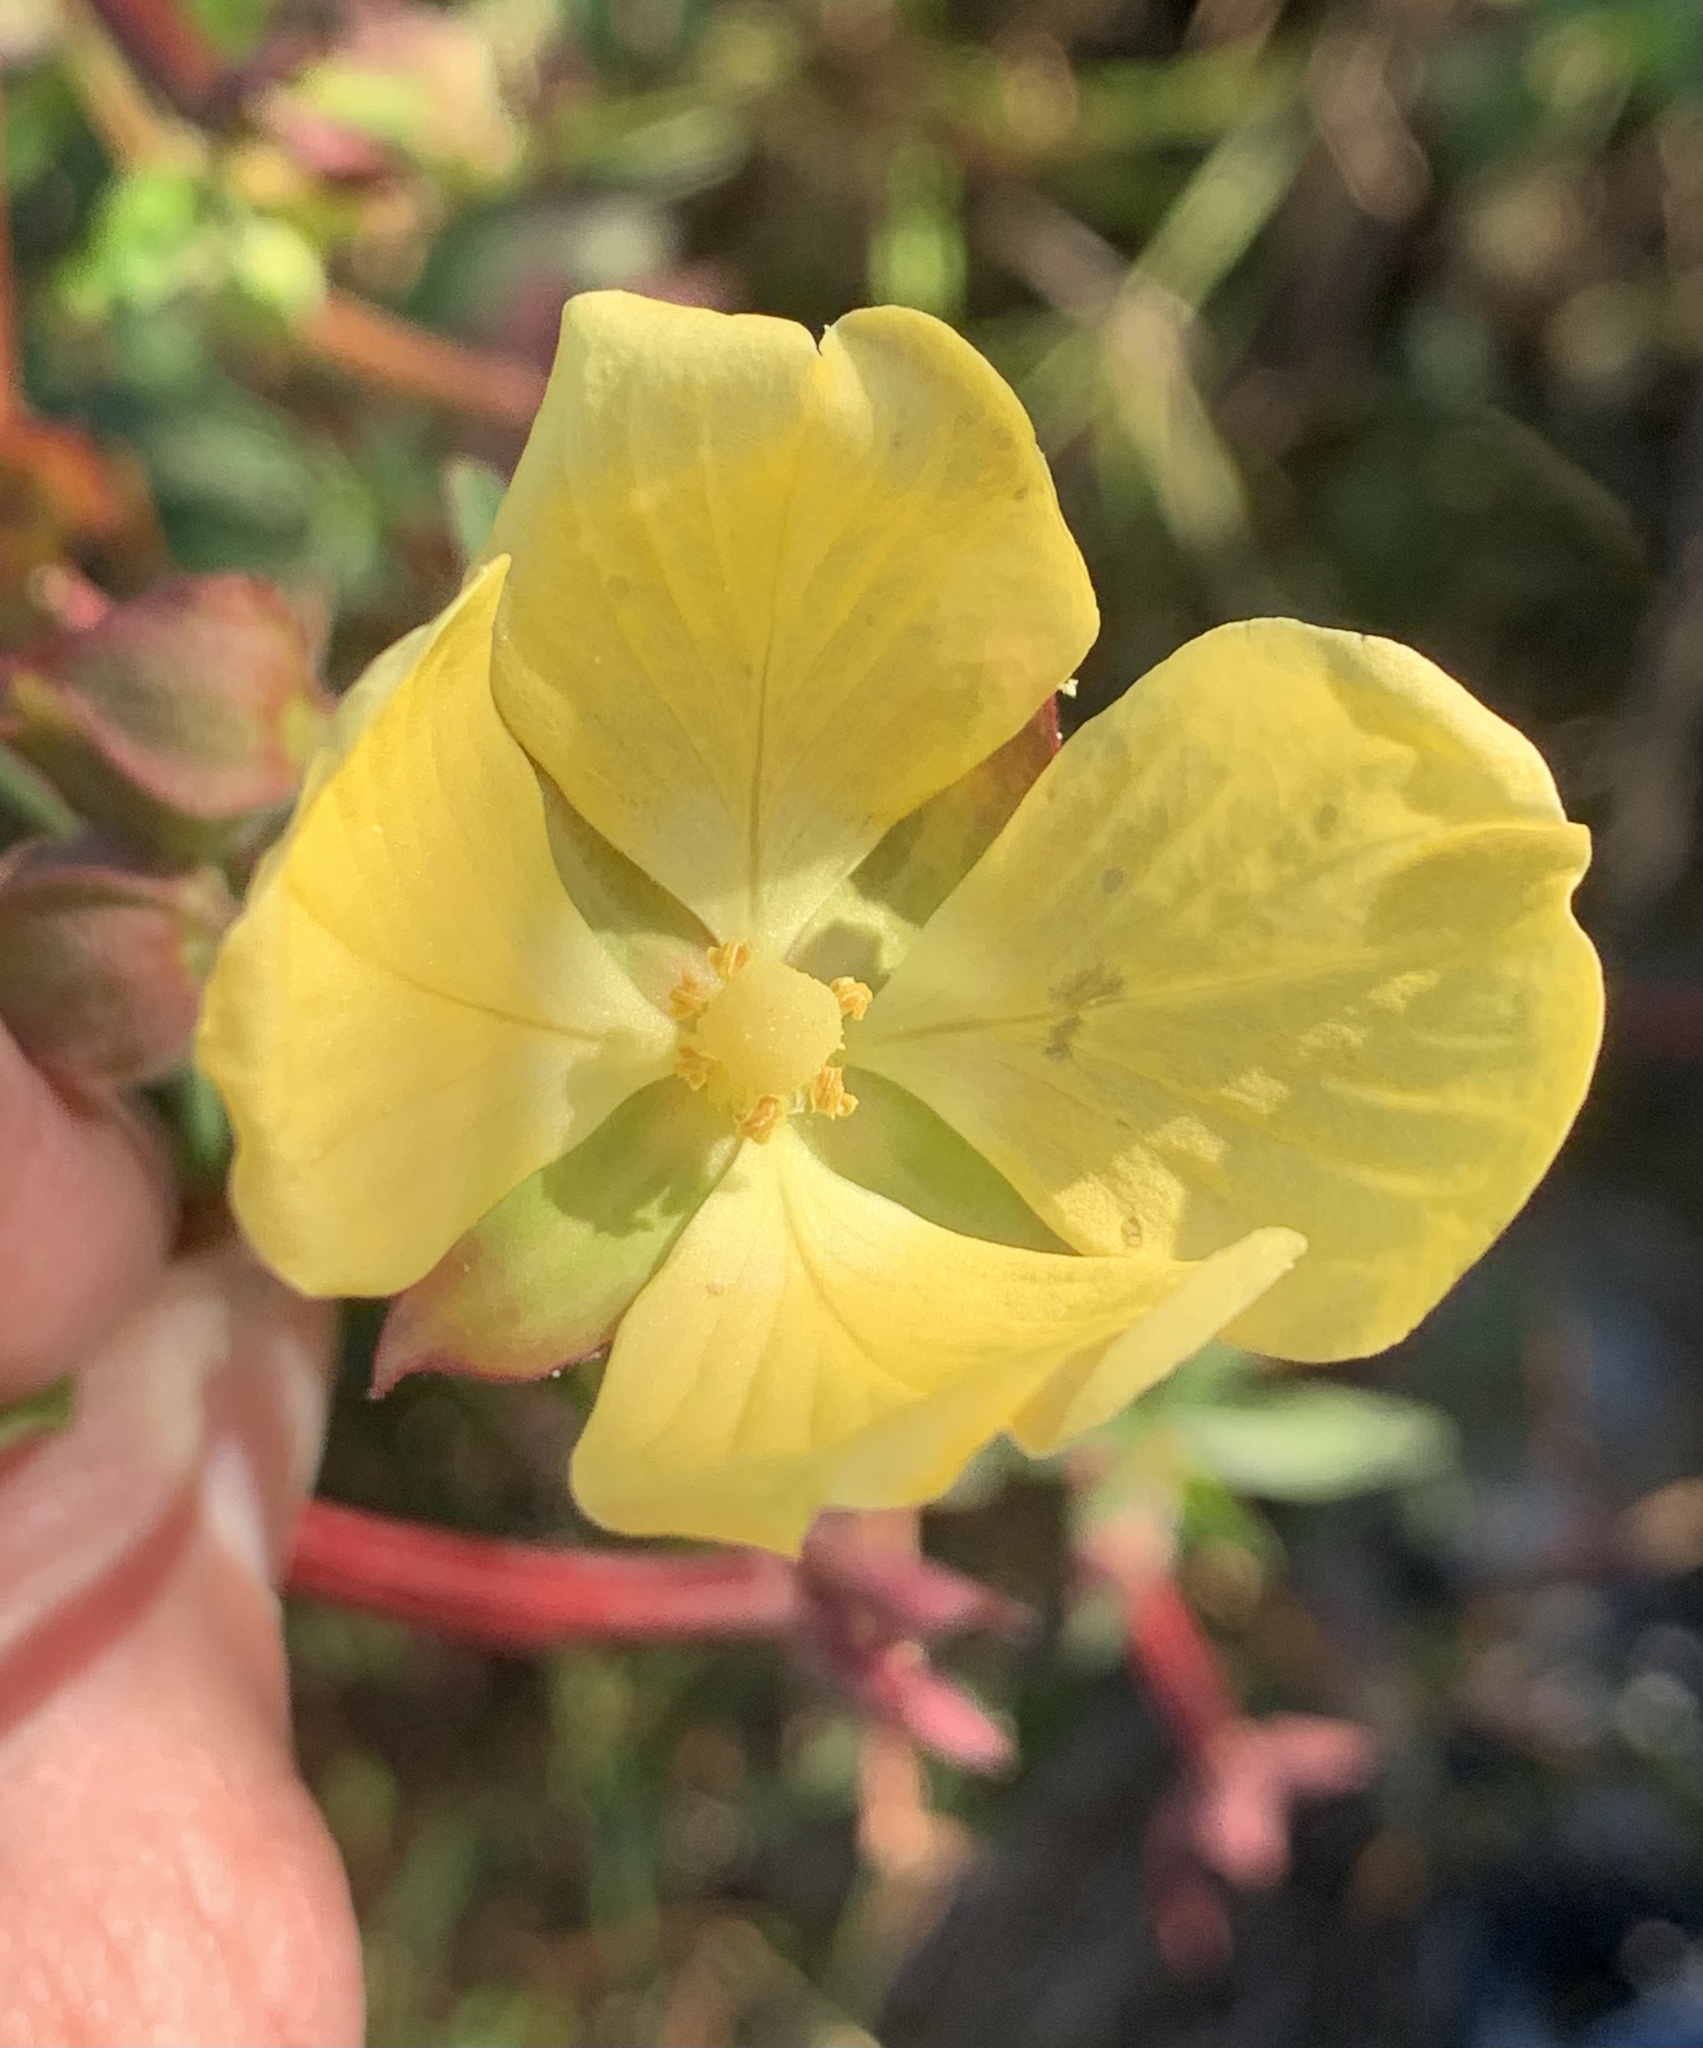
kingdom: Plantae
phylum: Tracheophyta
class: Magnoliopsida
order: Myrtales
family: Onagraceae
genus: Ludwigia
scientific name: Ludwigia octovalvis
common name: Water-primrose
